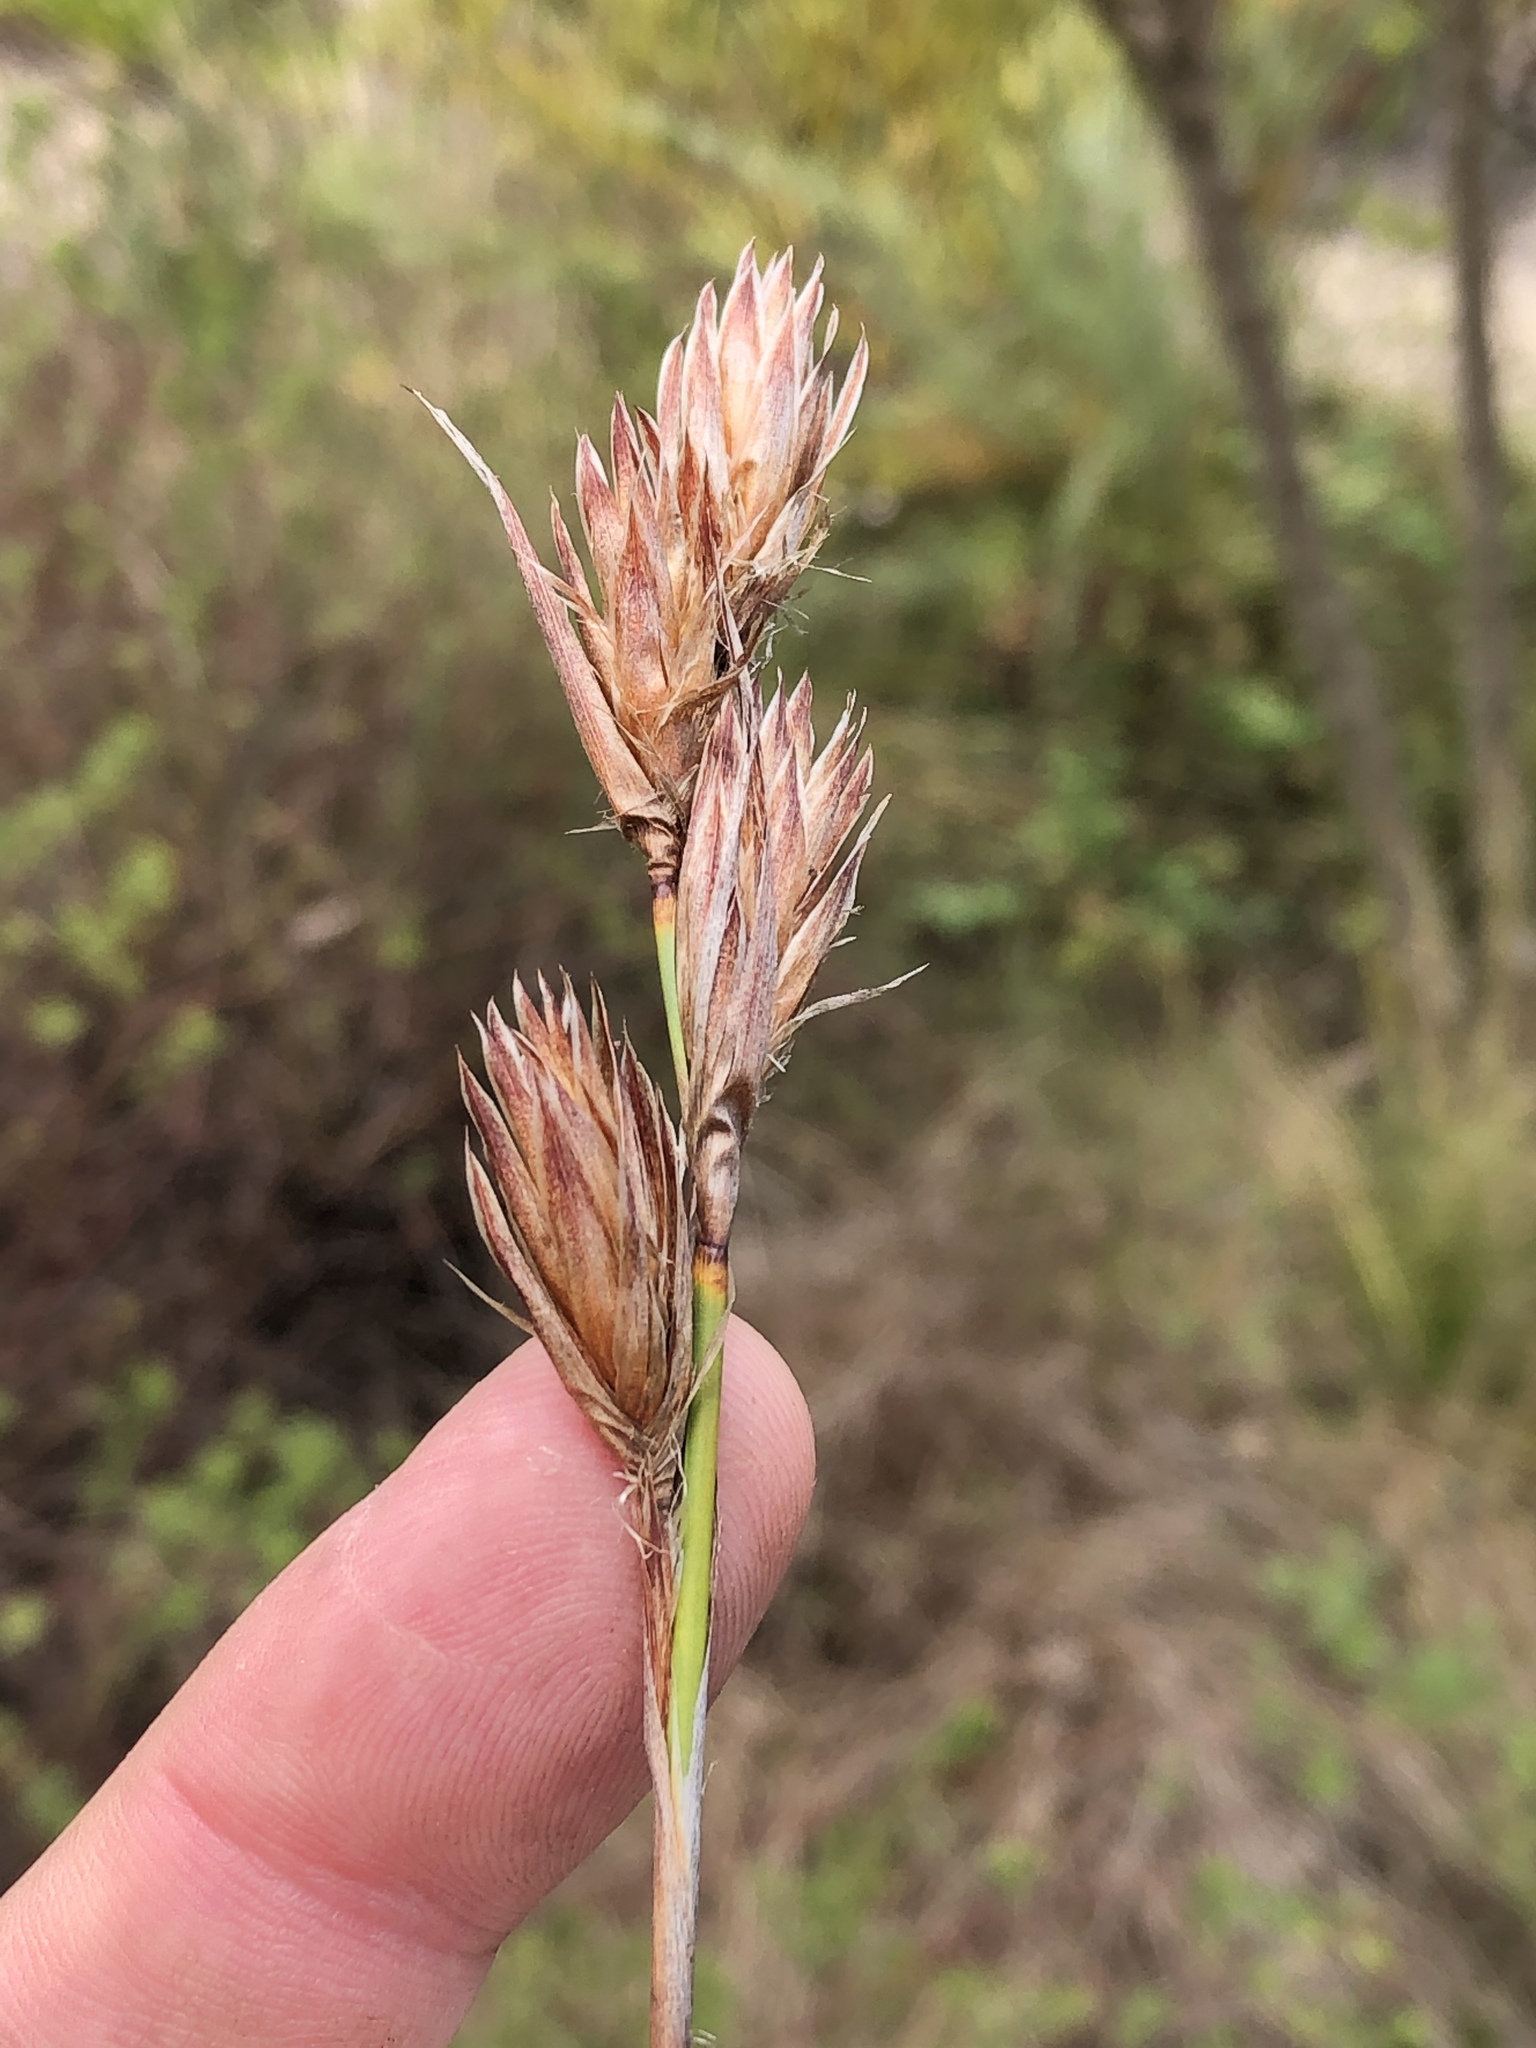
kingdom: Plantae
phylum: Tracheophyta
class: Liliopsida
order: Poales
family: Restionaceae
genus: Thamnochortus
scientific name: Thamnochortus glaber
